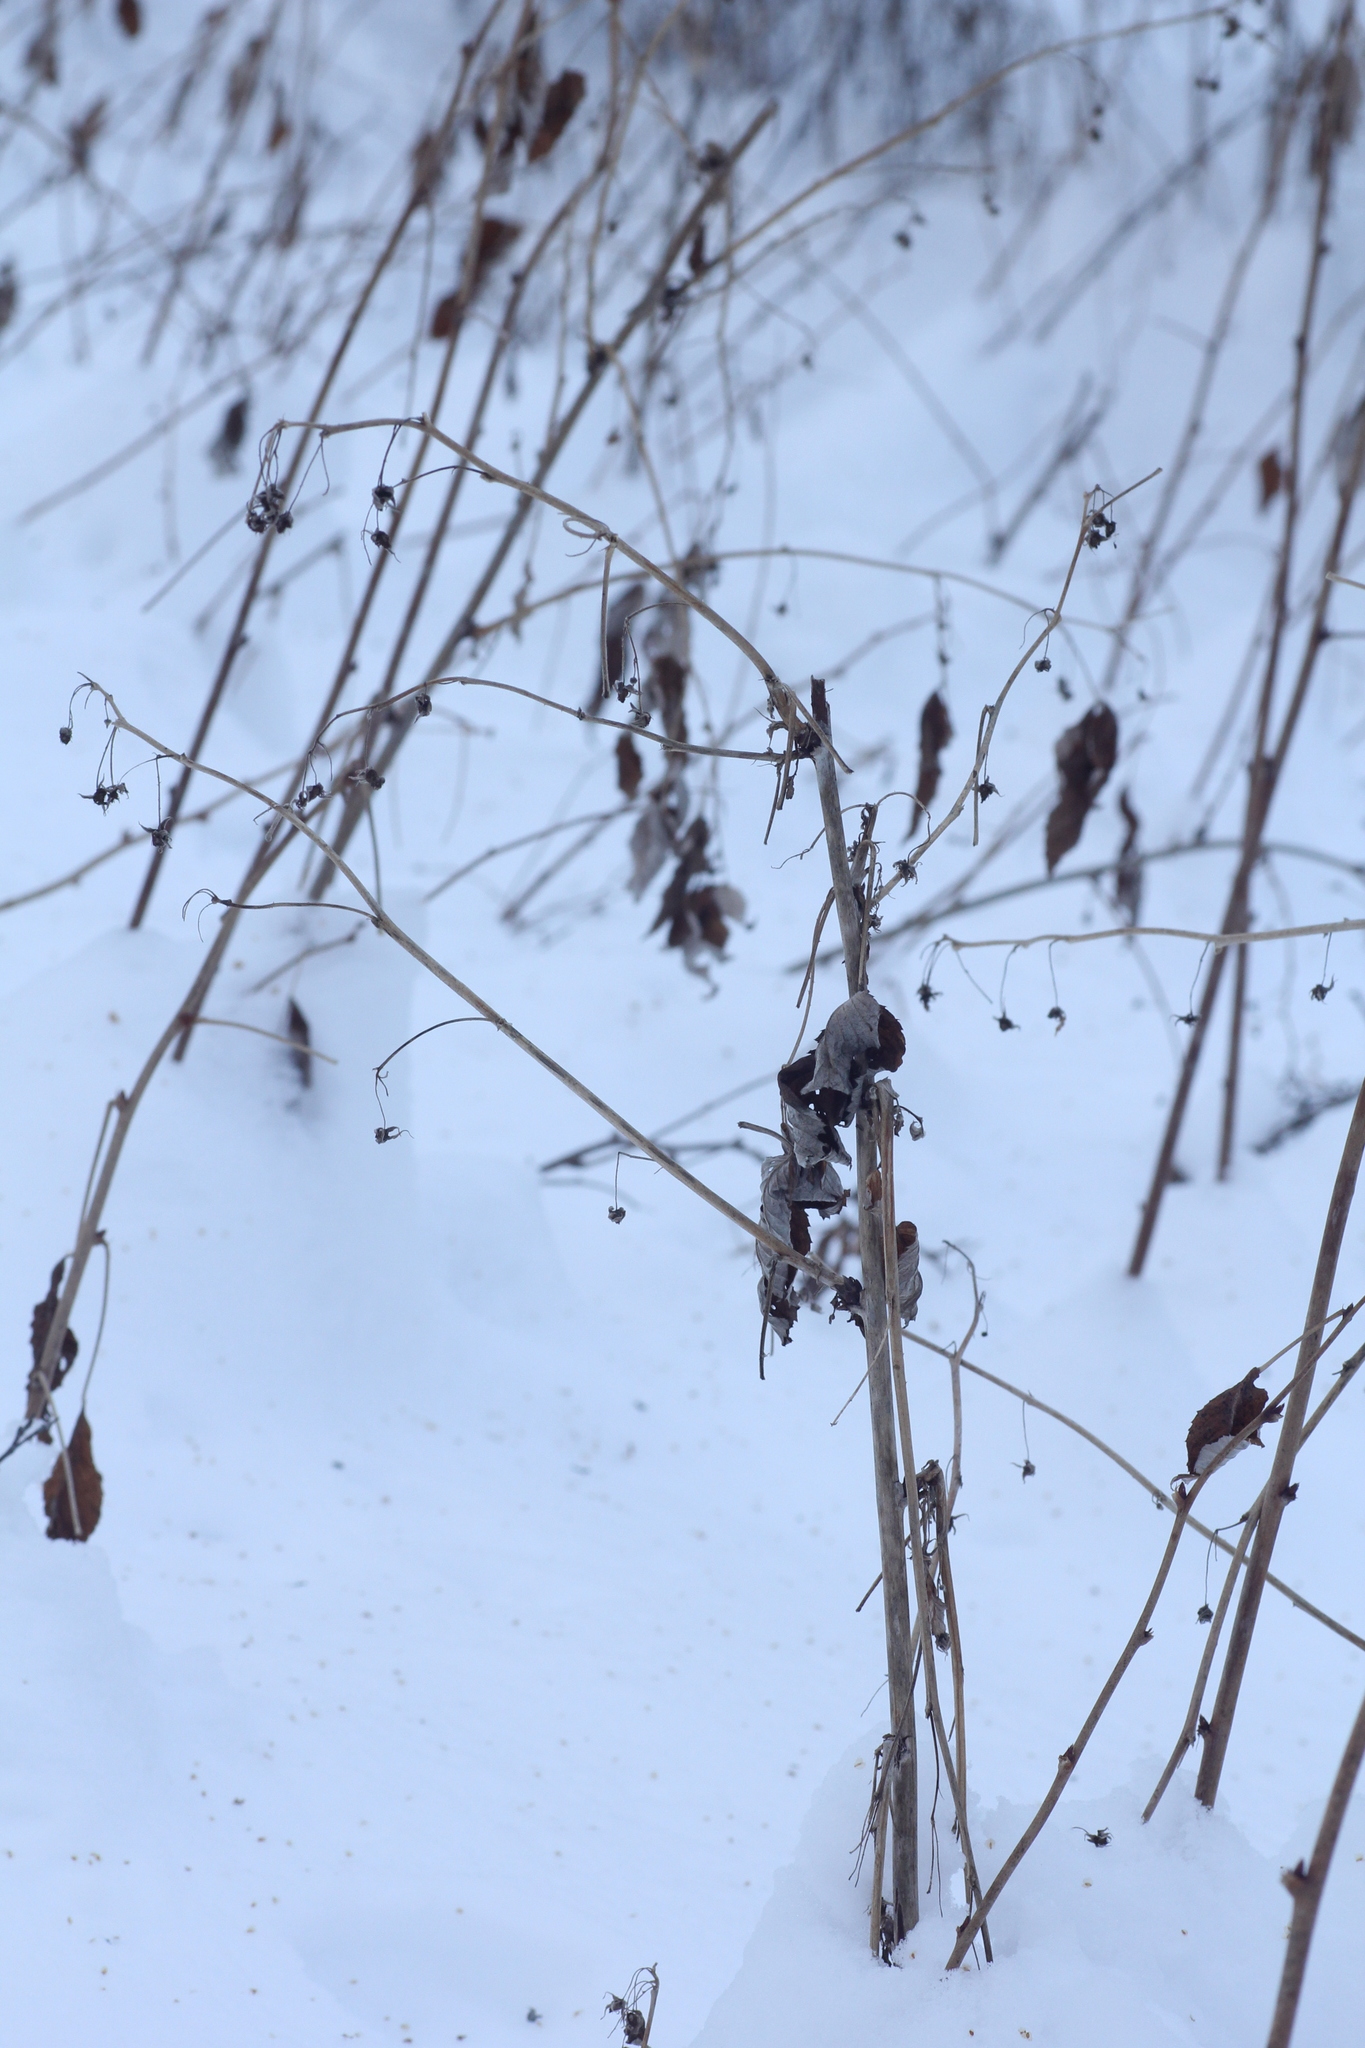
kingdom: Plantae
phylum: Tracheophyta
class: Magnoliopsida
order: Rosales
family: Rosaceae
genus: Rubus
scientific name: Rubus idaeus
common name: Raspberry
